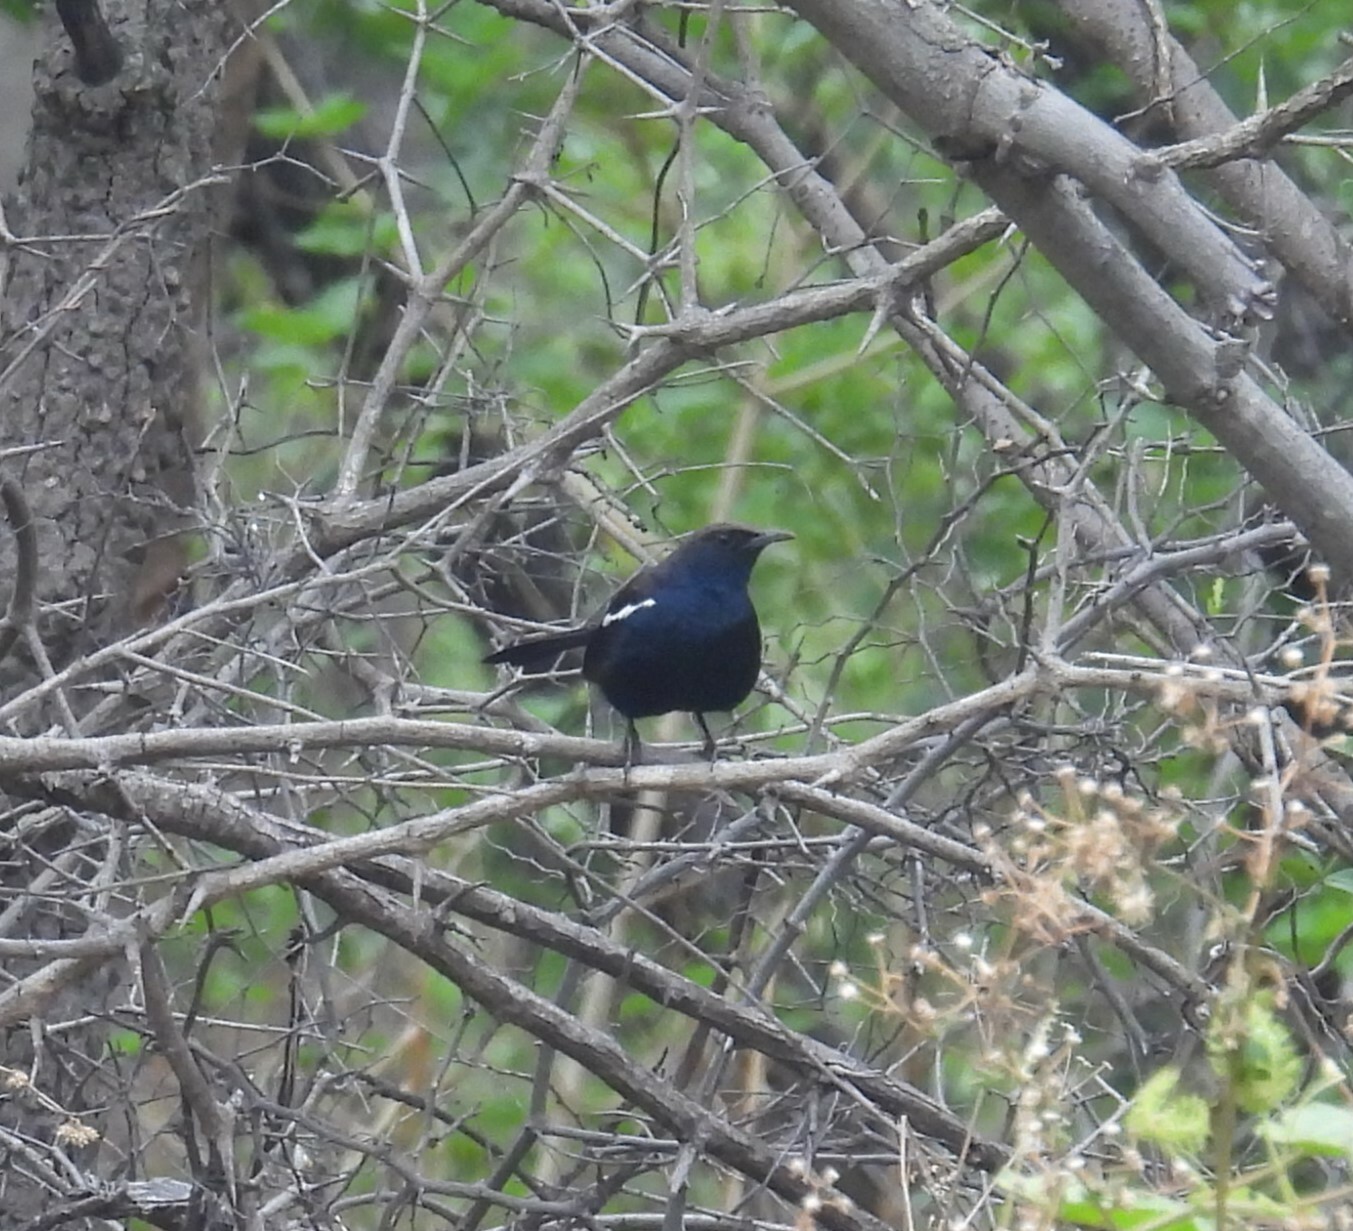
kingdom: Animalia
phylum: Chordata
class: Aves
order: Passeriformes
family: Muscicapidae
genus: Saxicoloides
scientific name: Saxicoloides fulicatus
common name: Indian robin
